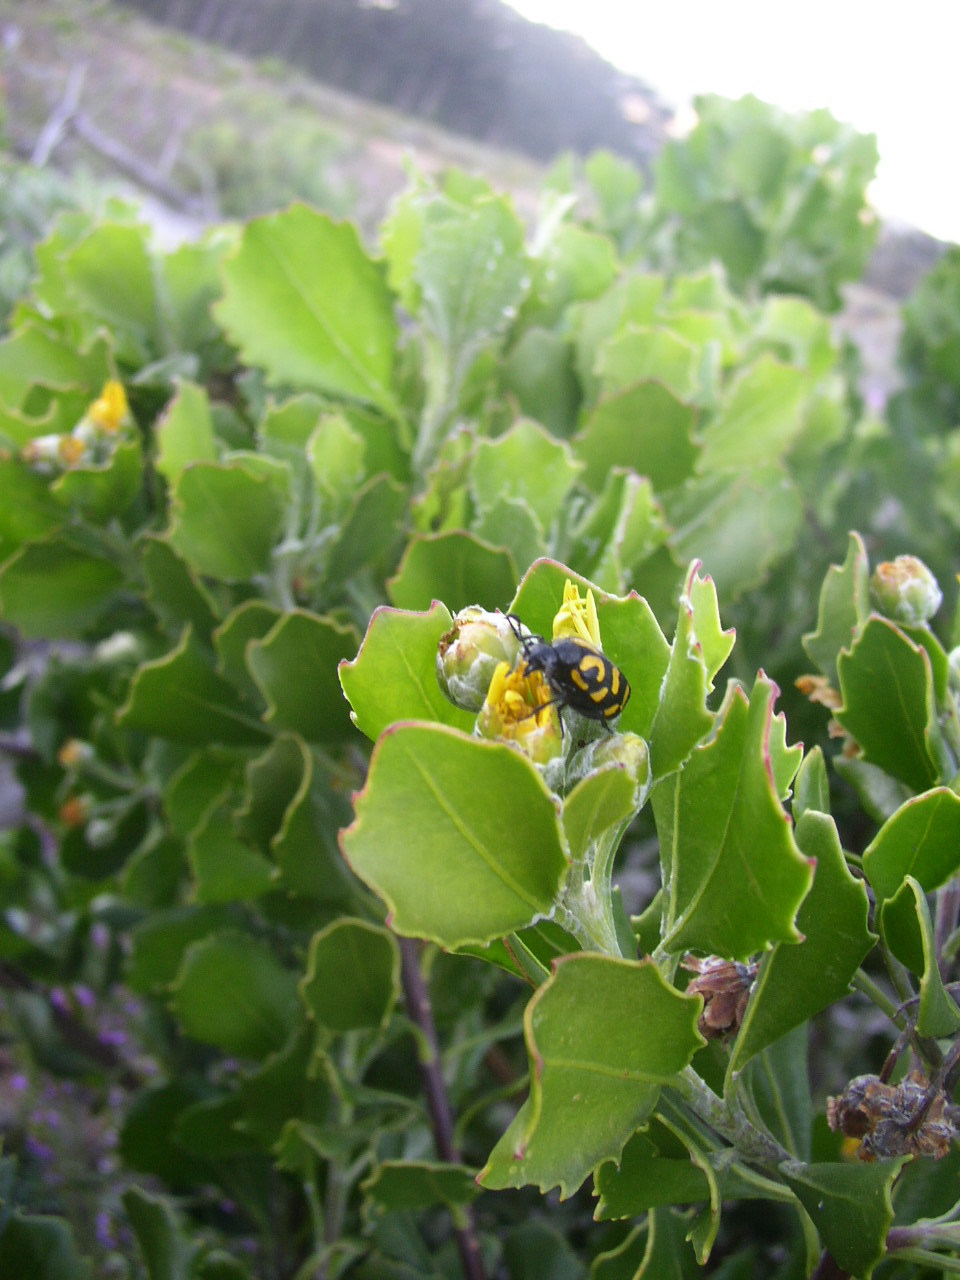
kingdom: Plantae
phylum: Tracheophyta
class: Magnoliopsida
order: Asterales
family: Asteraceae
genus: Osteospermum
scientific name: Osteospermum moniliferum
